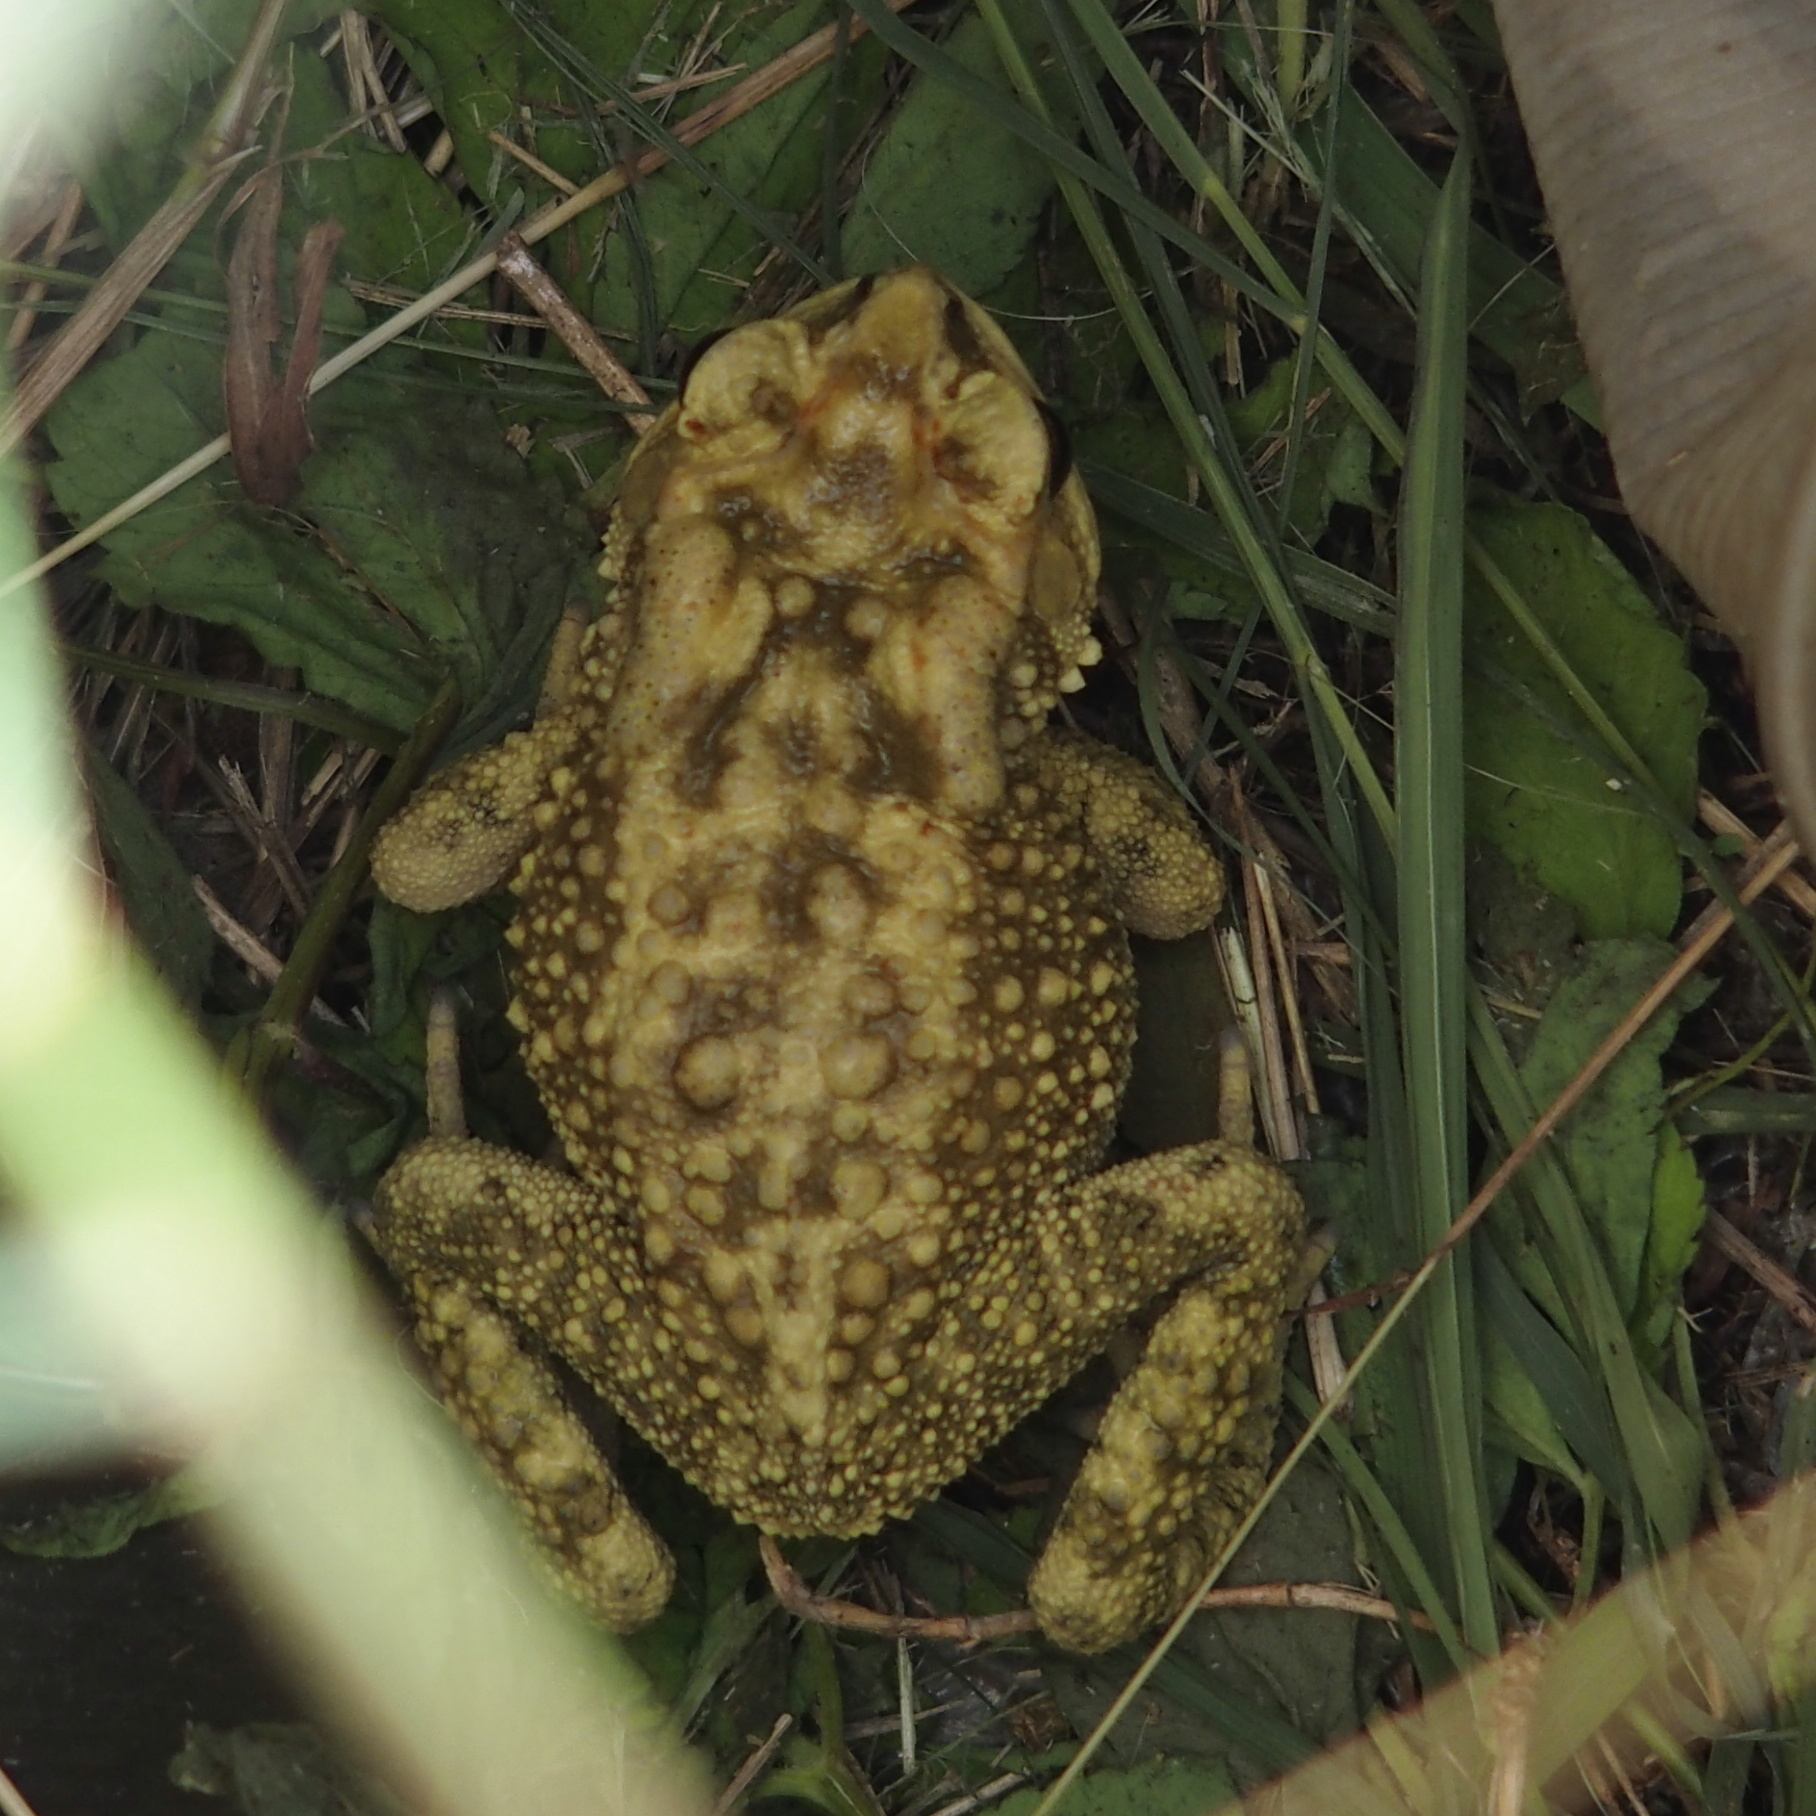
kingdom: Animalia
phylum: Chordata
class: Amphibia
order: Anura
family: Bufonidae
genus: Duttaphrynus
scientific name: Duttaphrynus melanostictus
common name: Common sunda toad
